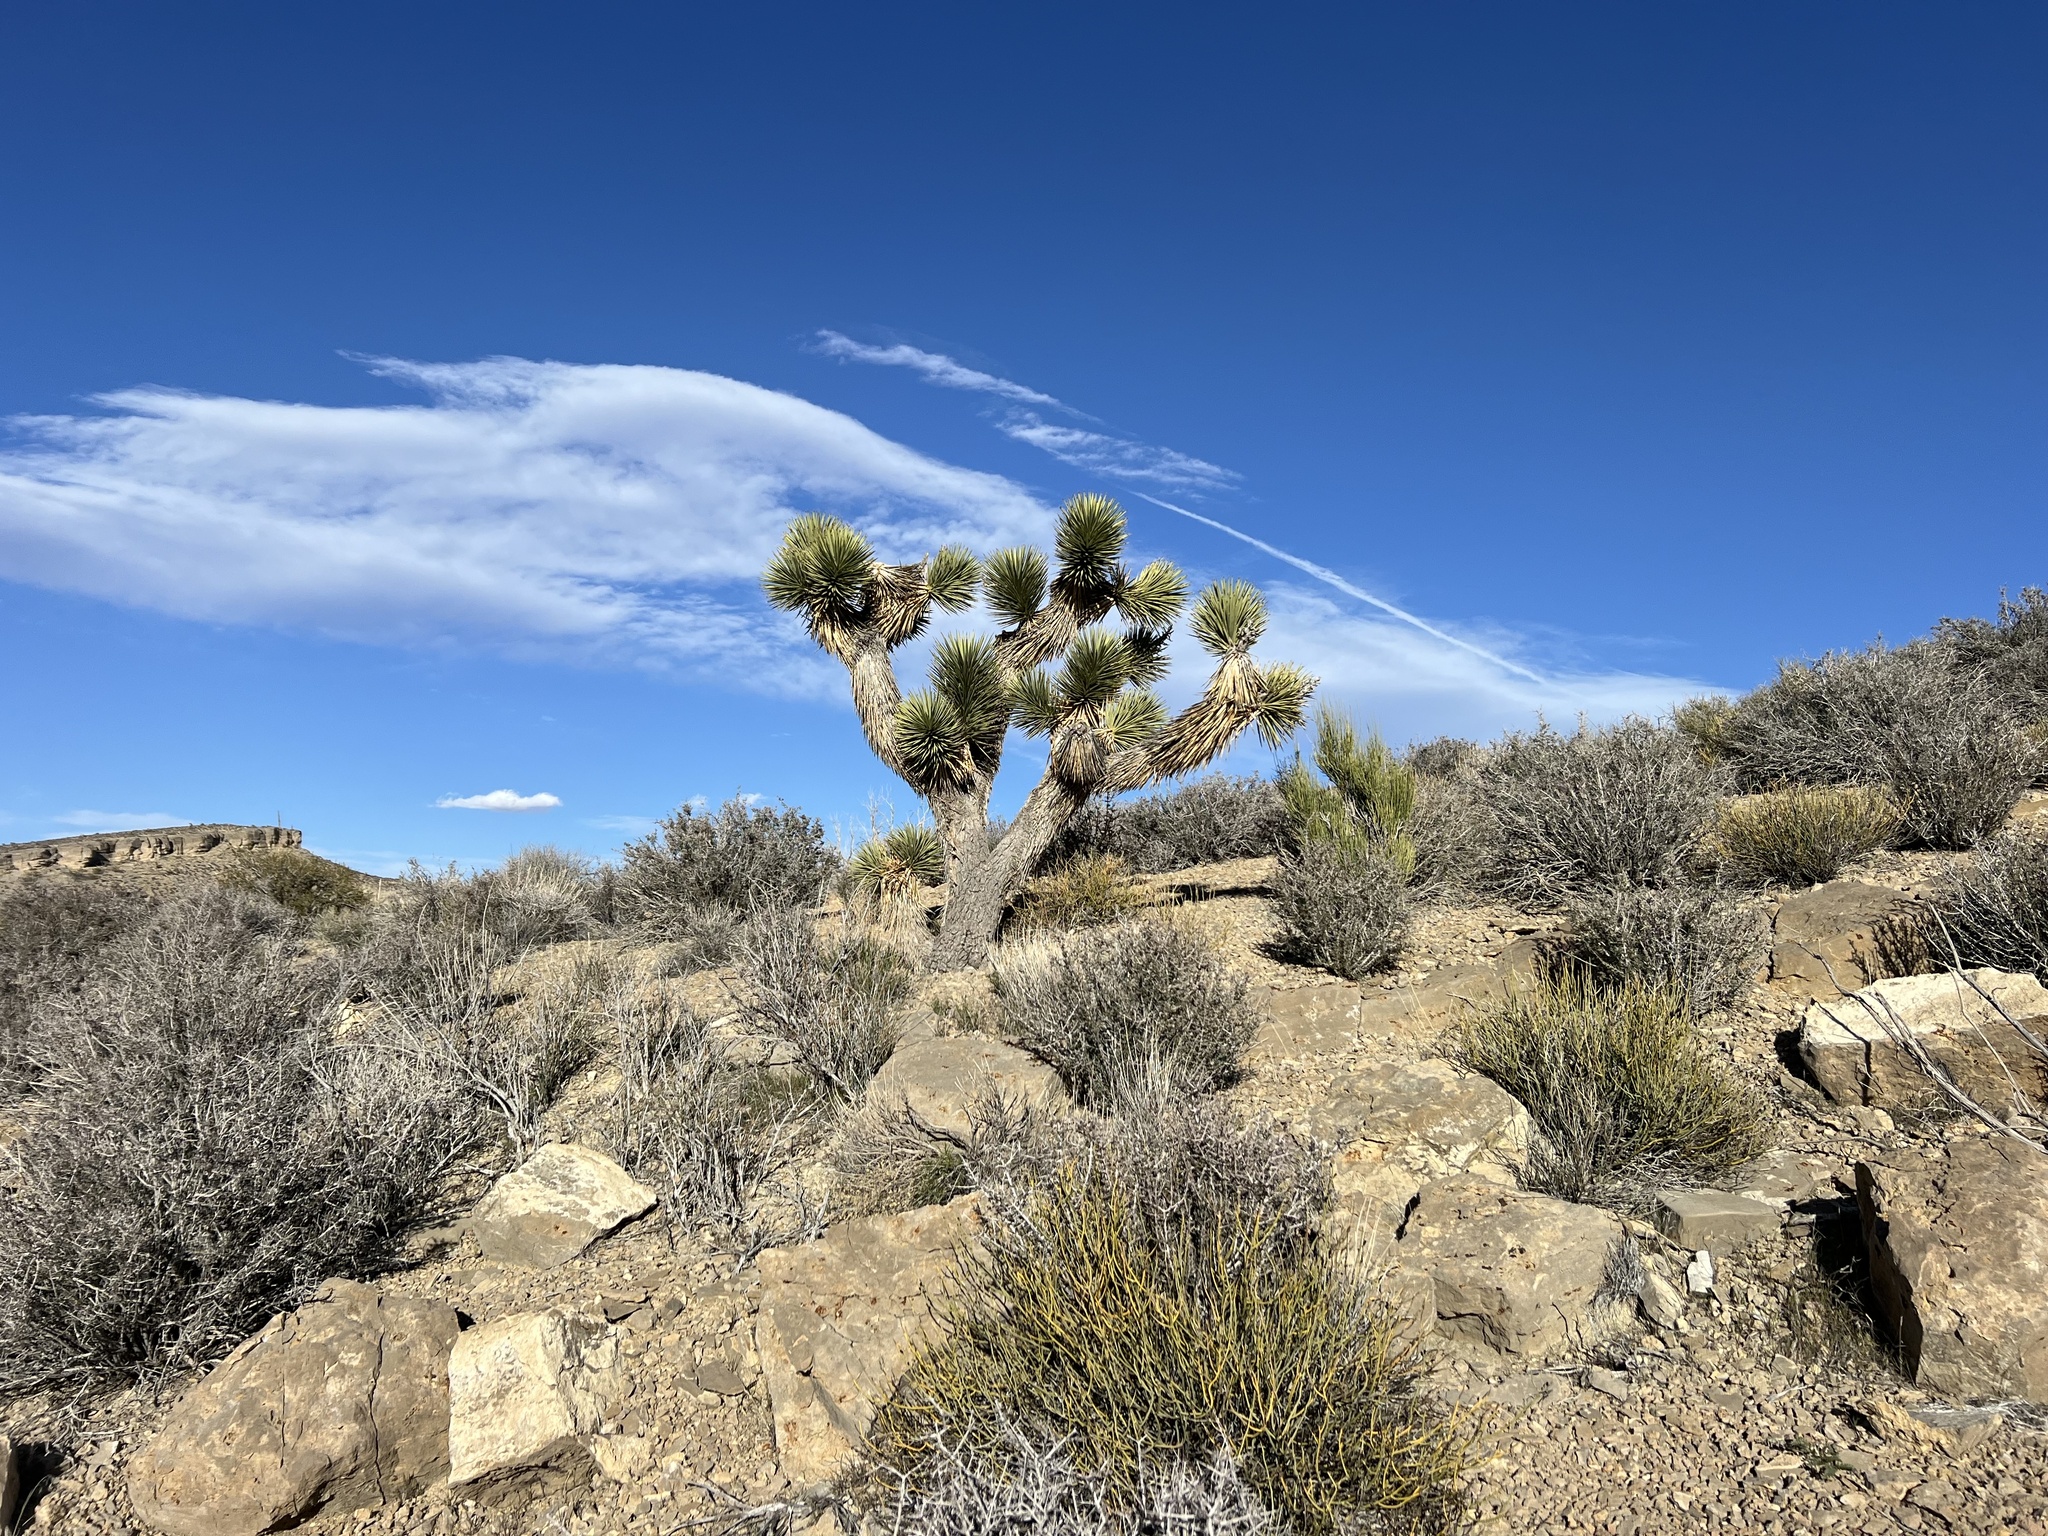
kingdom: Plantae
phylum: Tracheophyta
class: Liliopsida
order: Asparagales
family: Asparagaceae
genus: Yucca
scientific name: Yucca brevifolia
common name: Joshua tree
